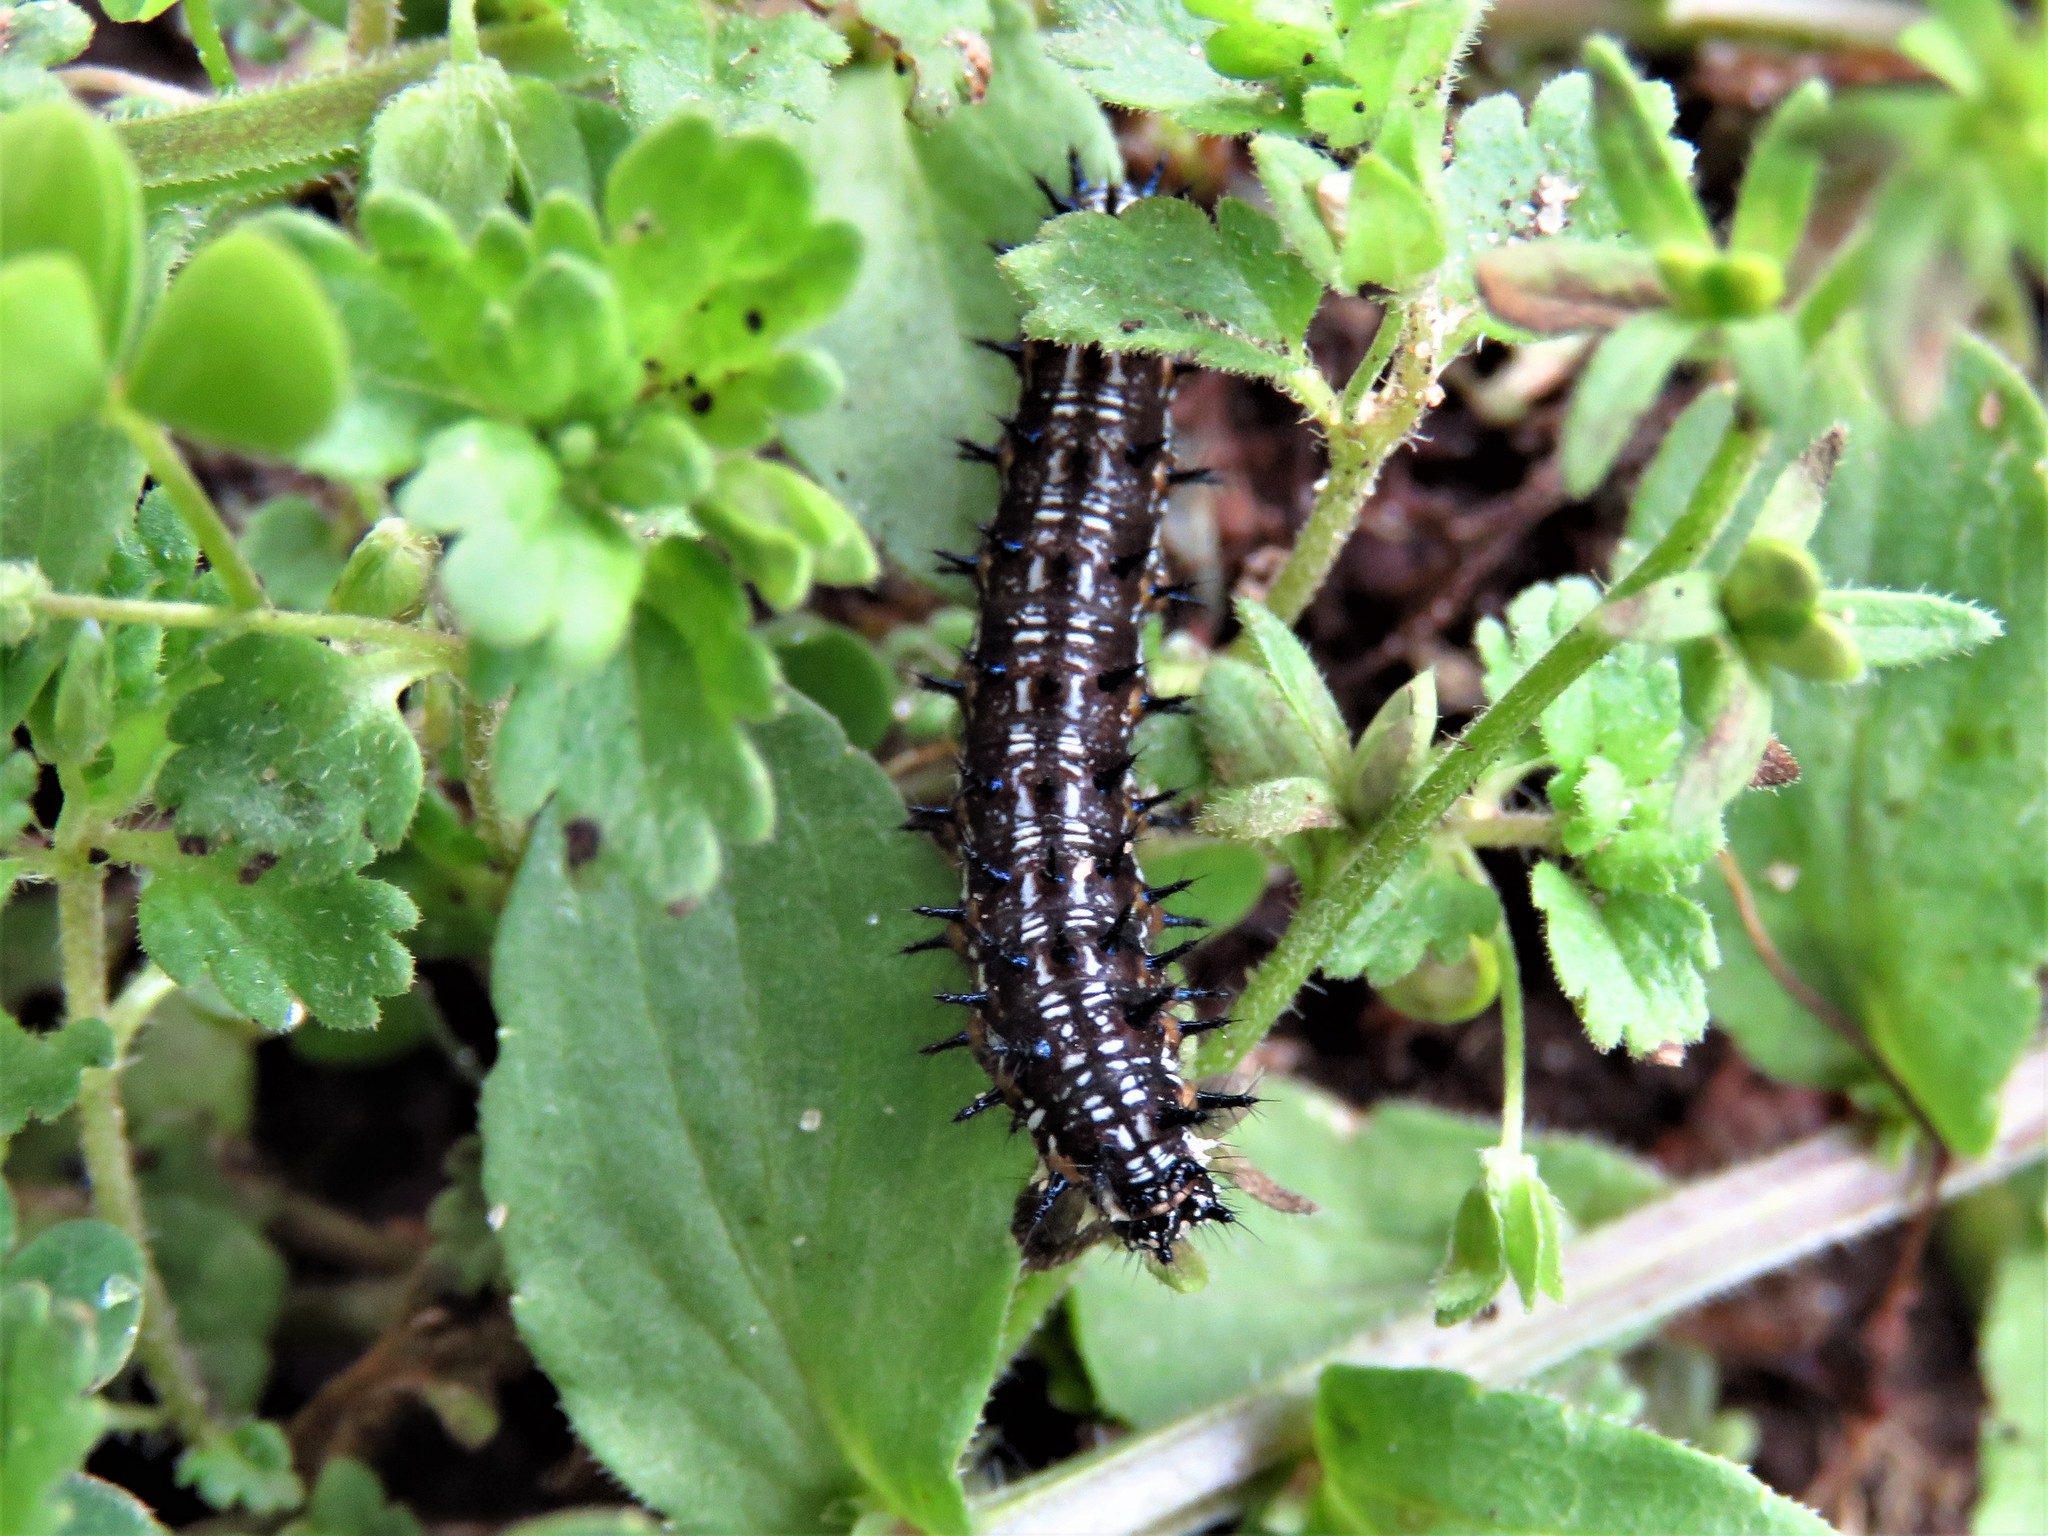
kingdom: Animalia
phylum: Arthropoda
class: Insecta
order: Lepidoptera
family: Nymphalidae
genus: Junonia
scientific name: Junonia coenia
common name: Common buckeye
